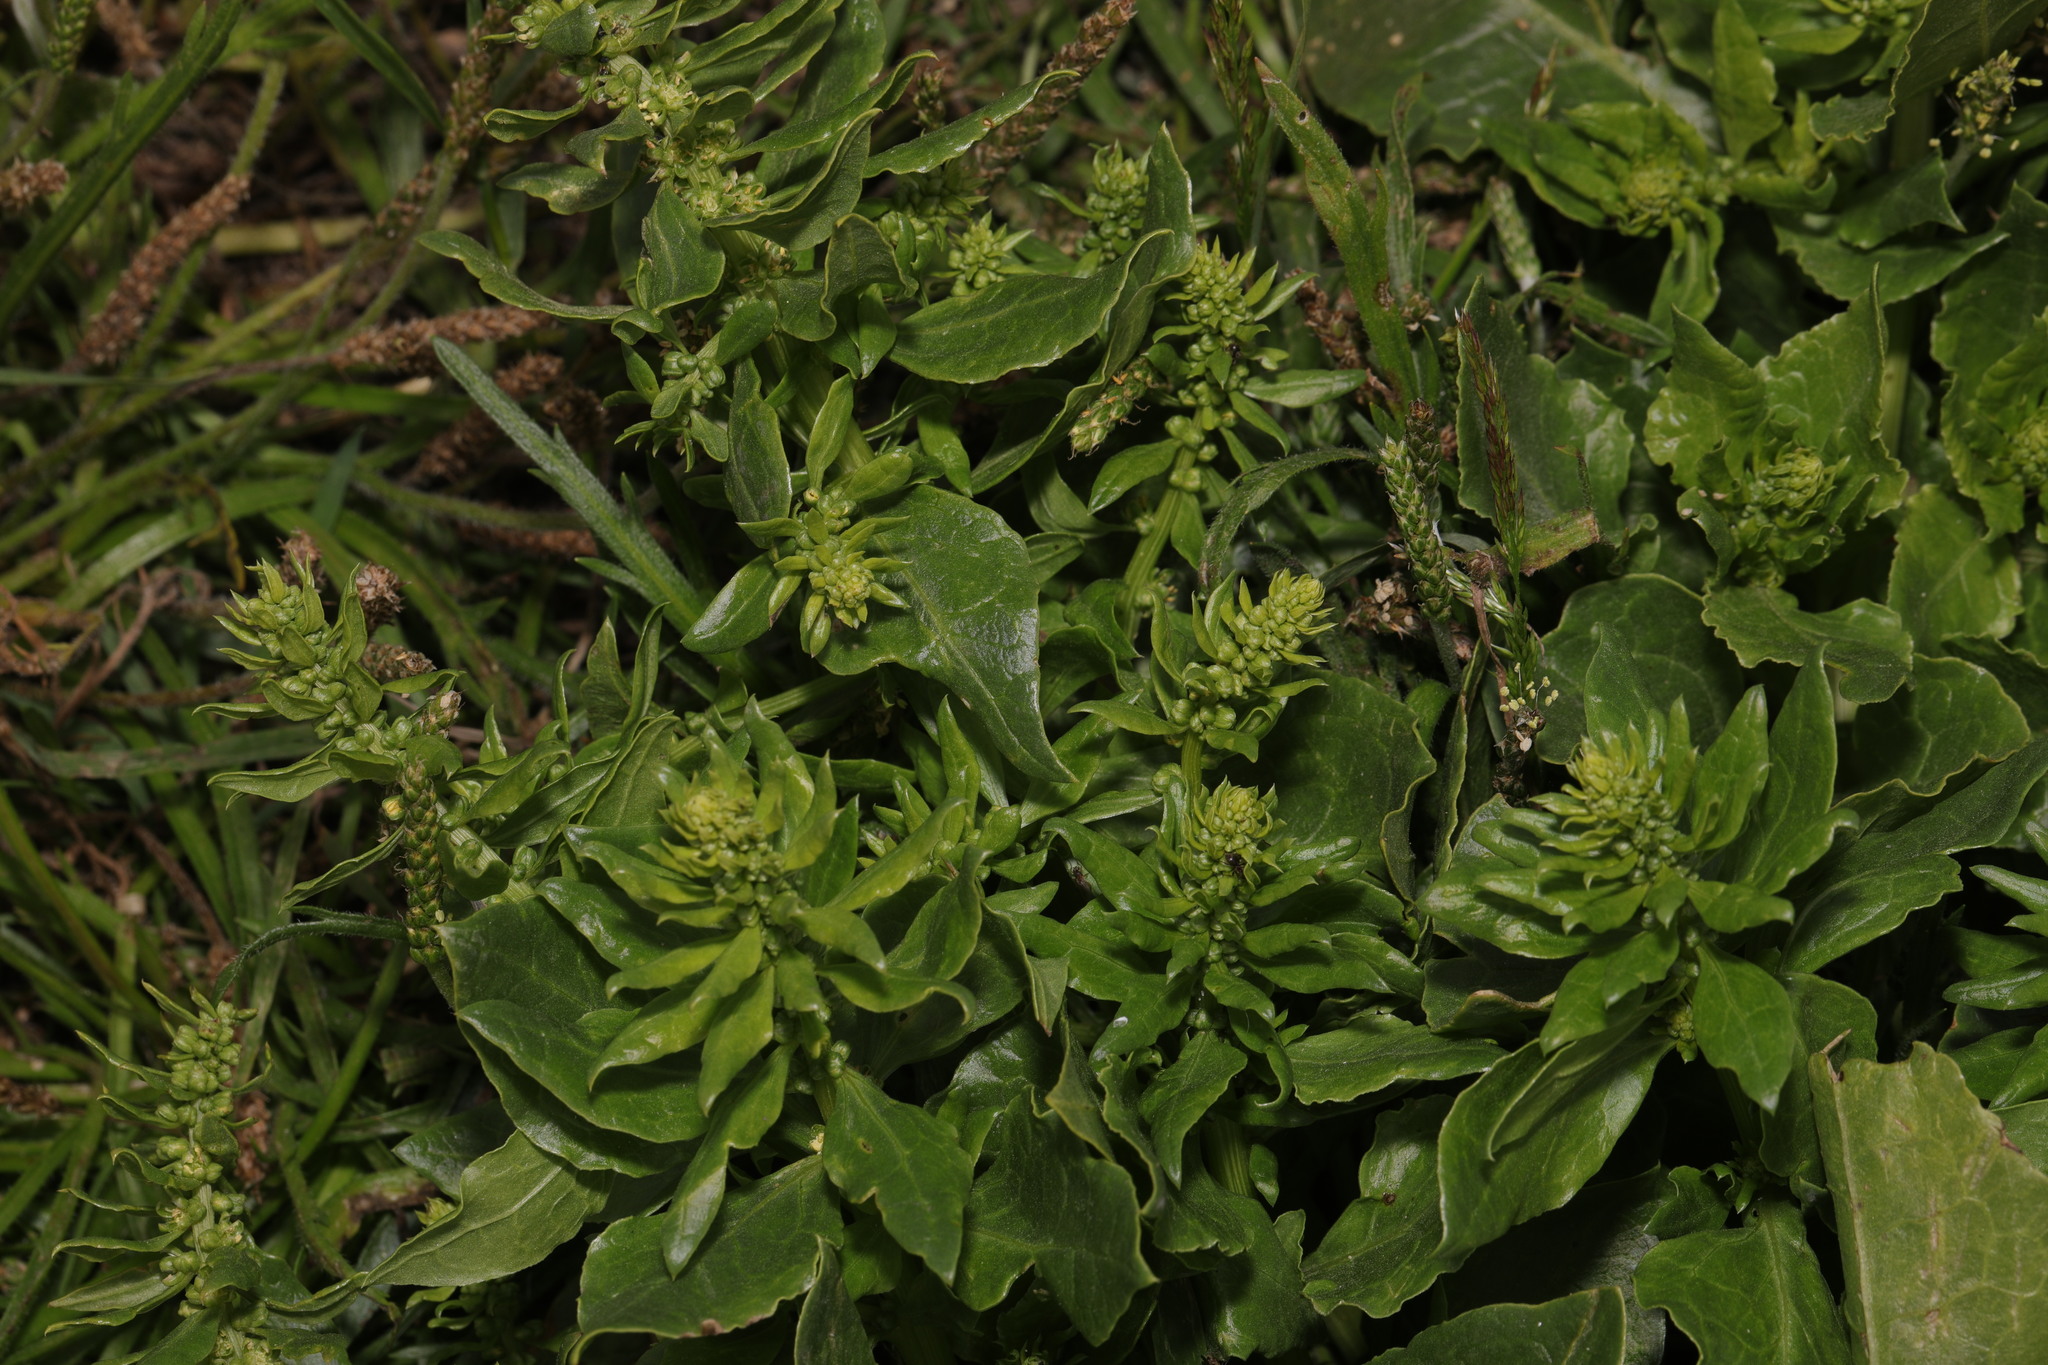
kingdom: Plantae
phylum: Tracheophyta
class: Magnoliopsida
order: Caryophyllales
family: Amaranthaceae
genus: Beta
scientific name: Beta vulgaris
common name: Beet
